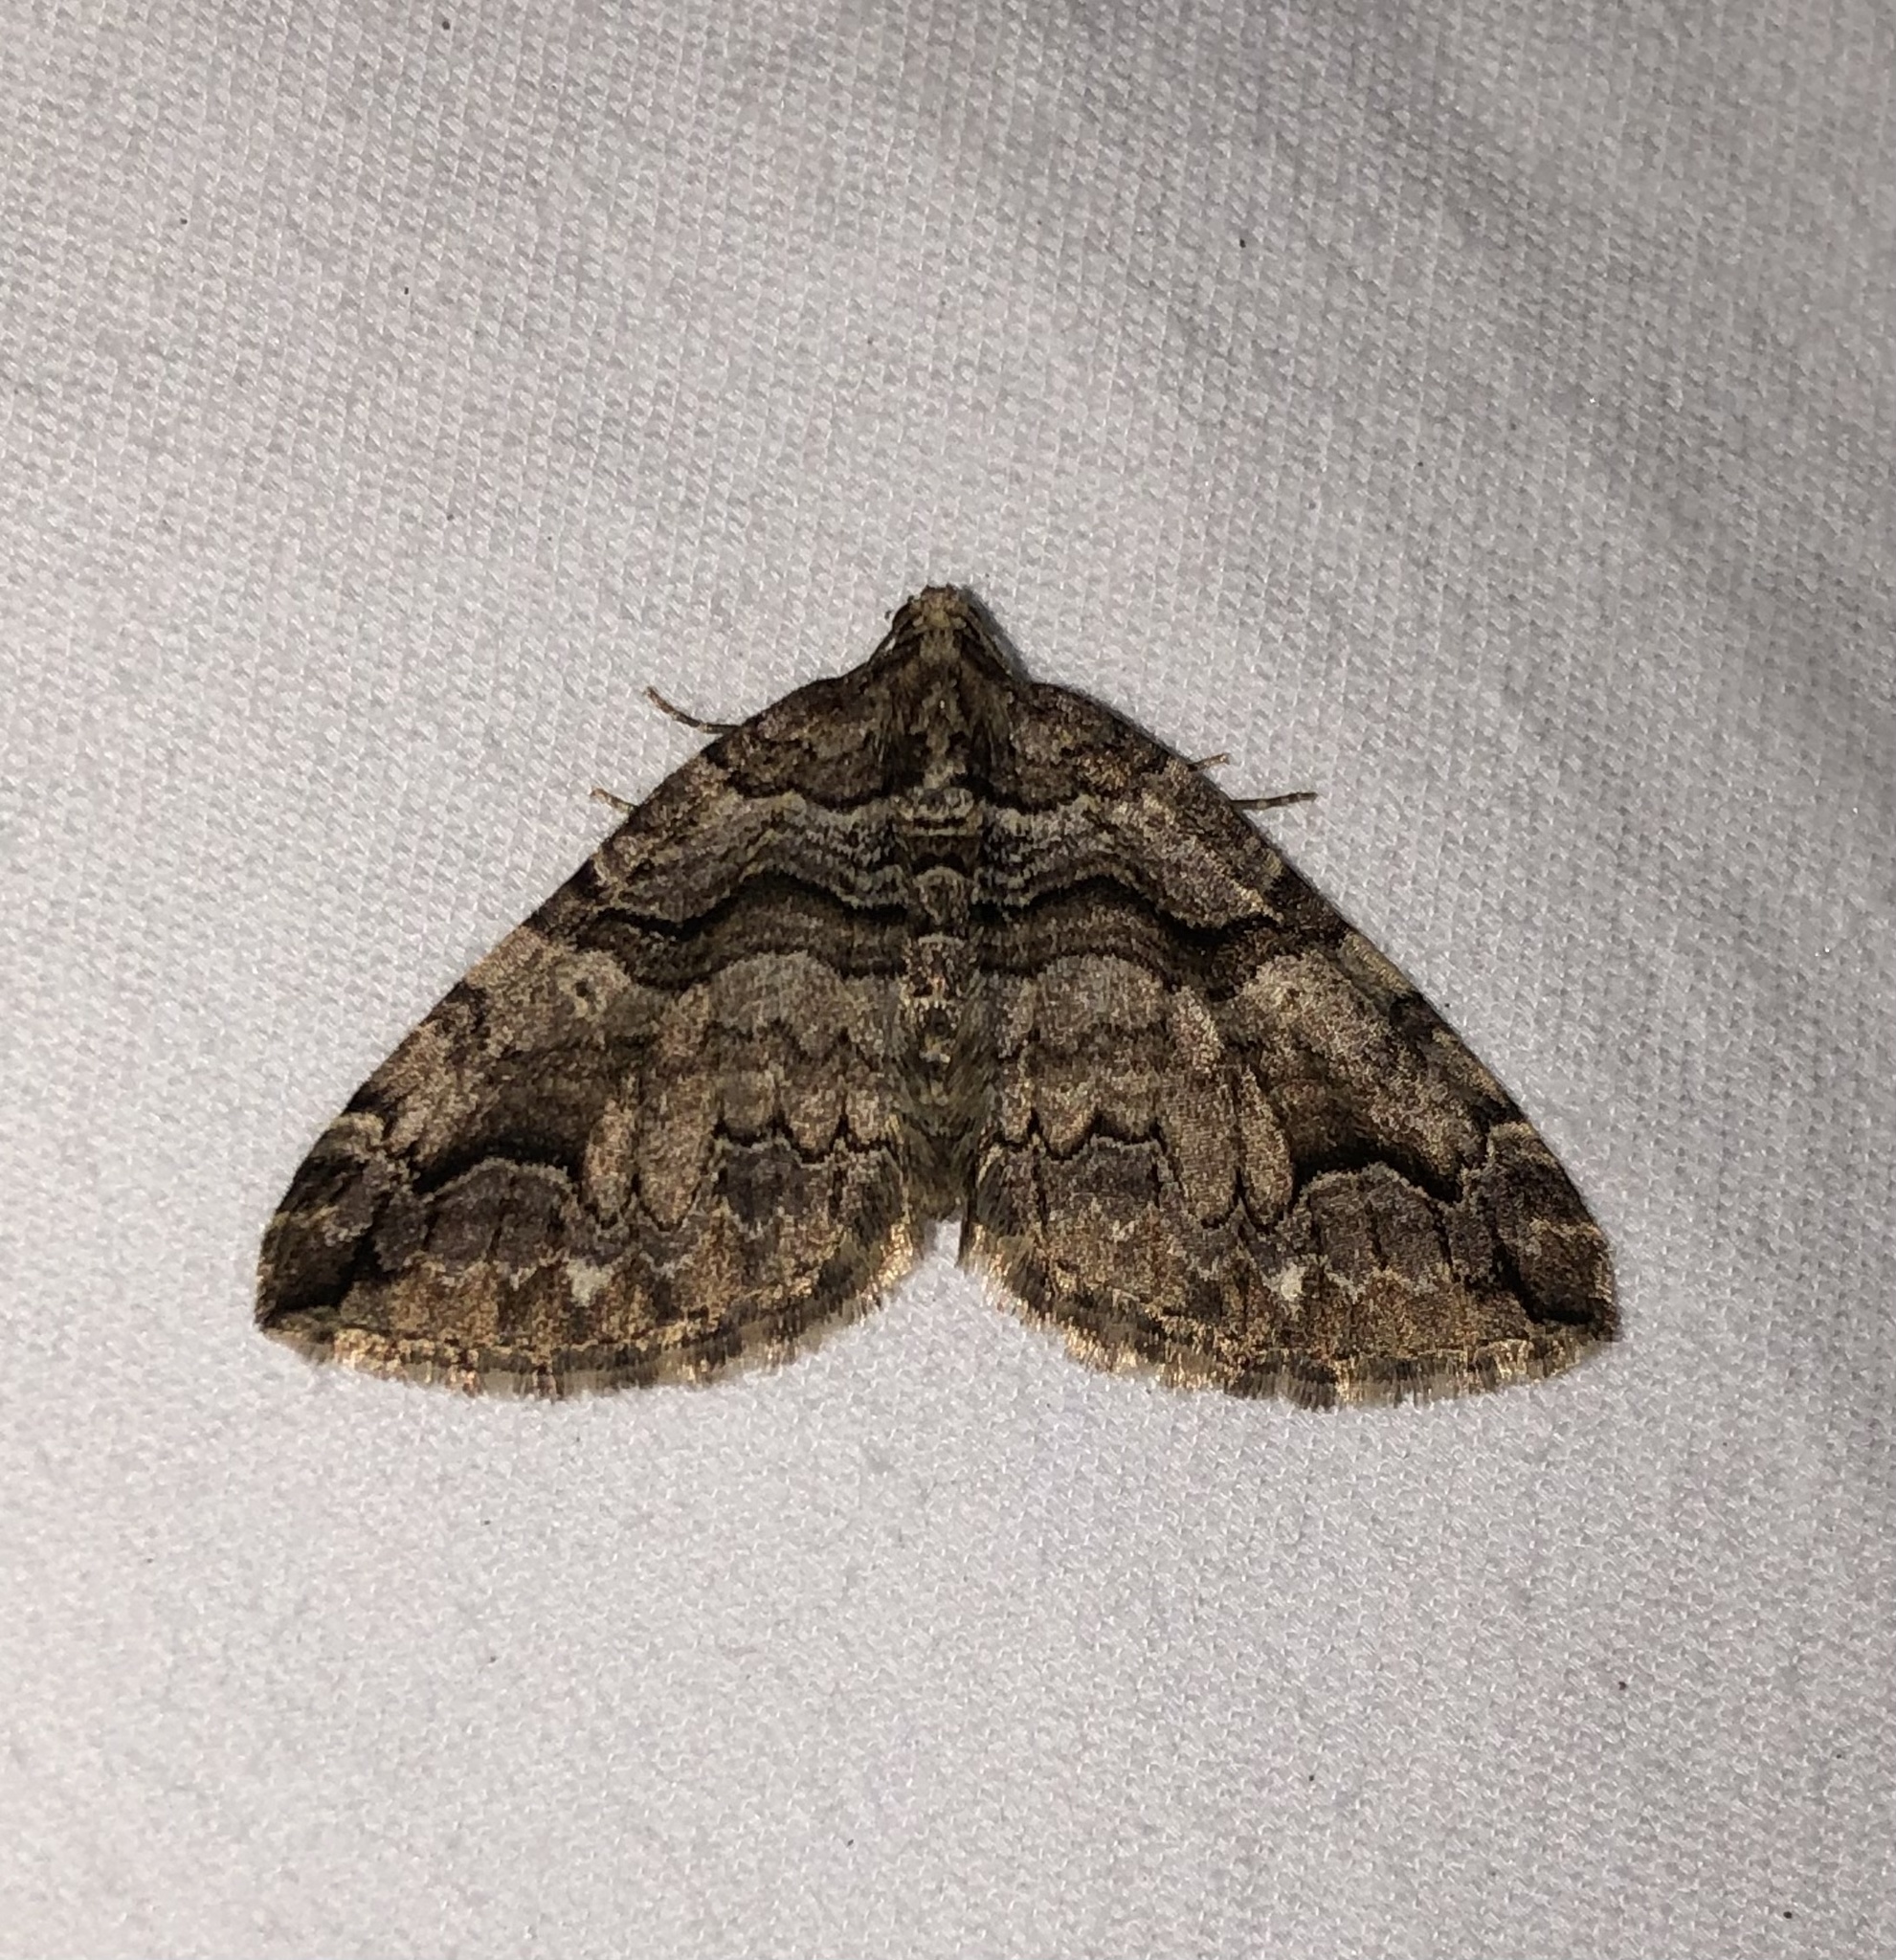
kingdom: Animalia
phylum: Arthropoda
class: Insecta
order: Lepidoptera
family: Geometridae
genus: Anticlea
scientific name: Anticlea vasiliata
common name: Variable carpet
